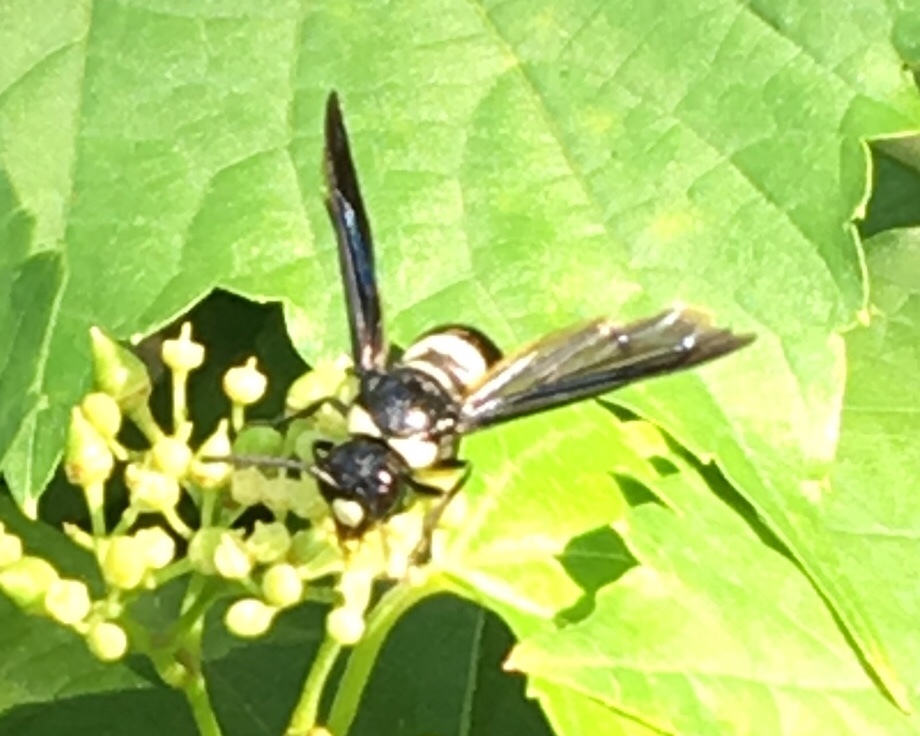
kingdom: Animalia
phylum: Arthropoda
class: Insecta
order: Hymenoptera
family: Eumenidae
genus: Monobia
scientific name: Monobia quadridens
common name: Four-toothed mason wasp
